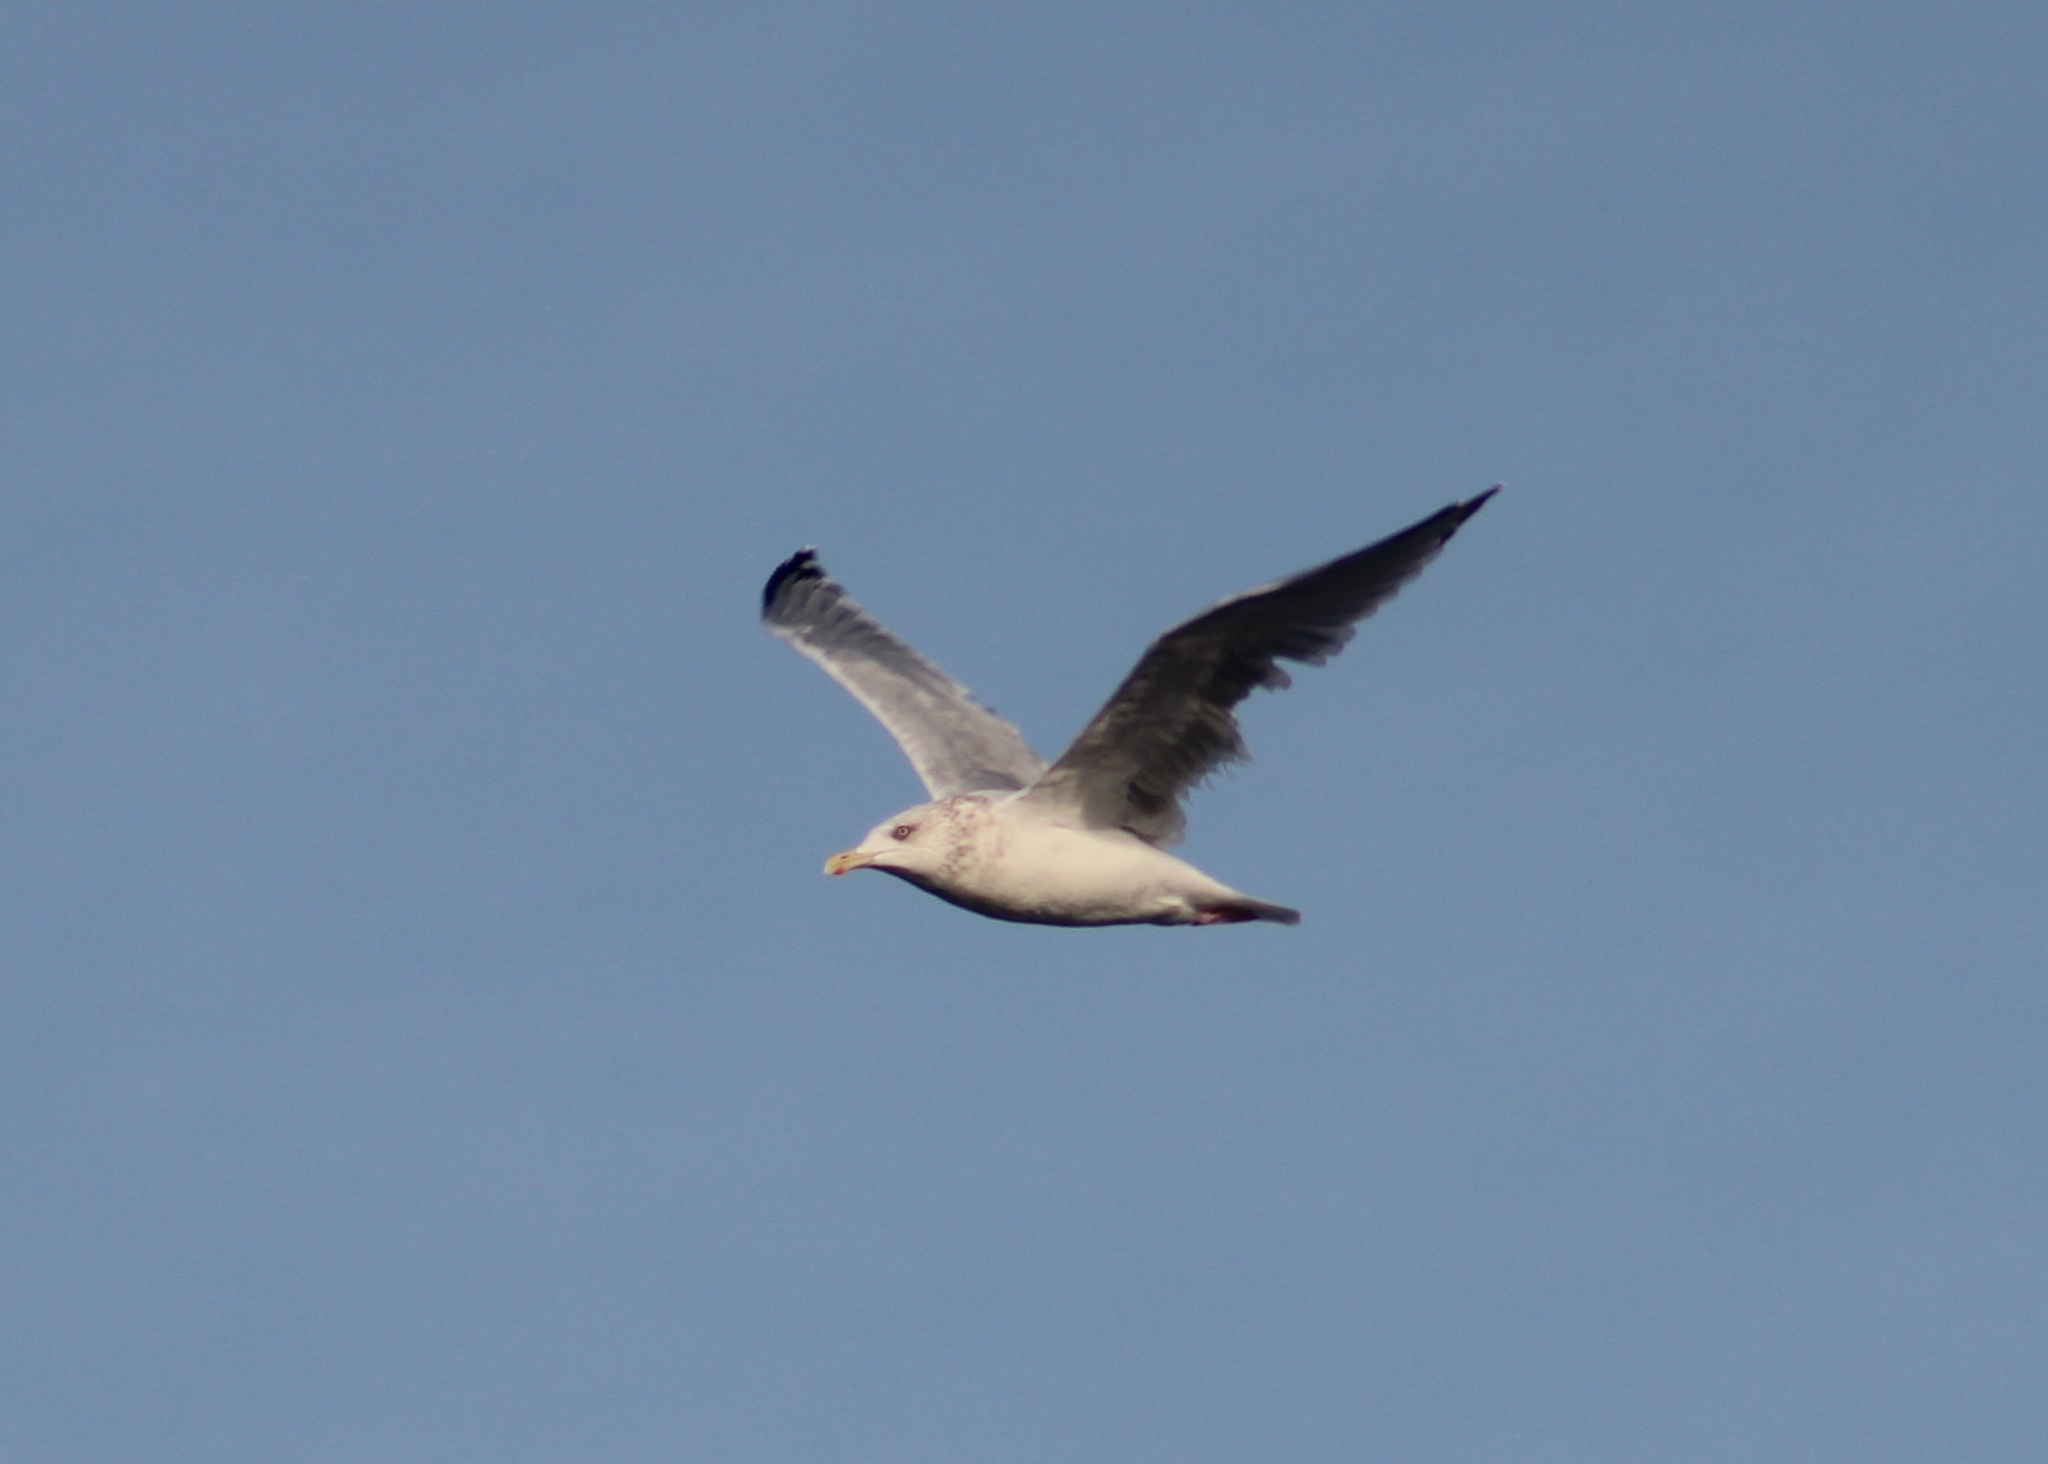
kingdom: Animalia
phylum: Chordata
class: Aves
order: Charadriiformes
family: Laridae
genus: Larus
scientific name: Larus argentatus
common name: Herring gull
